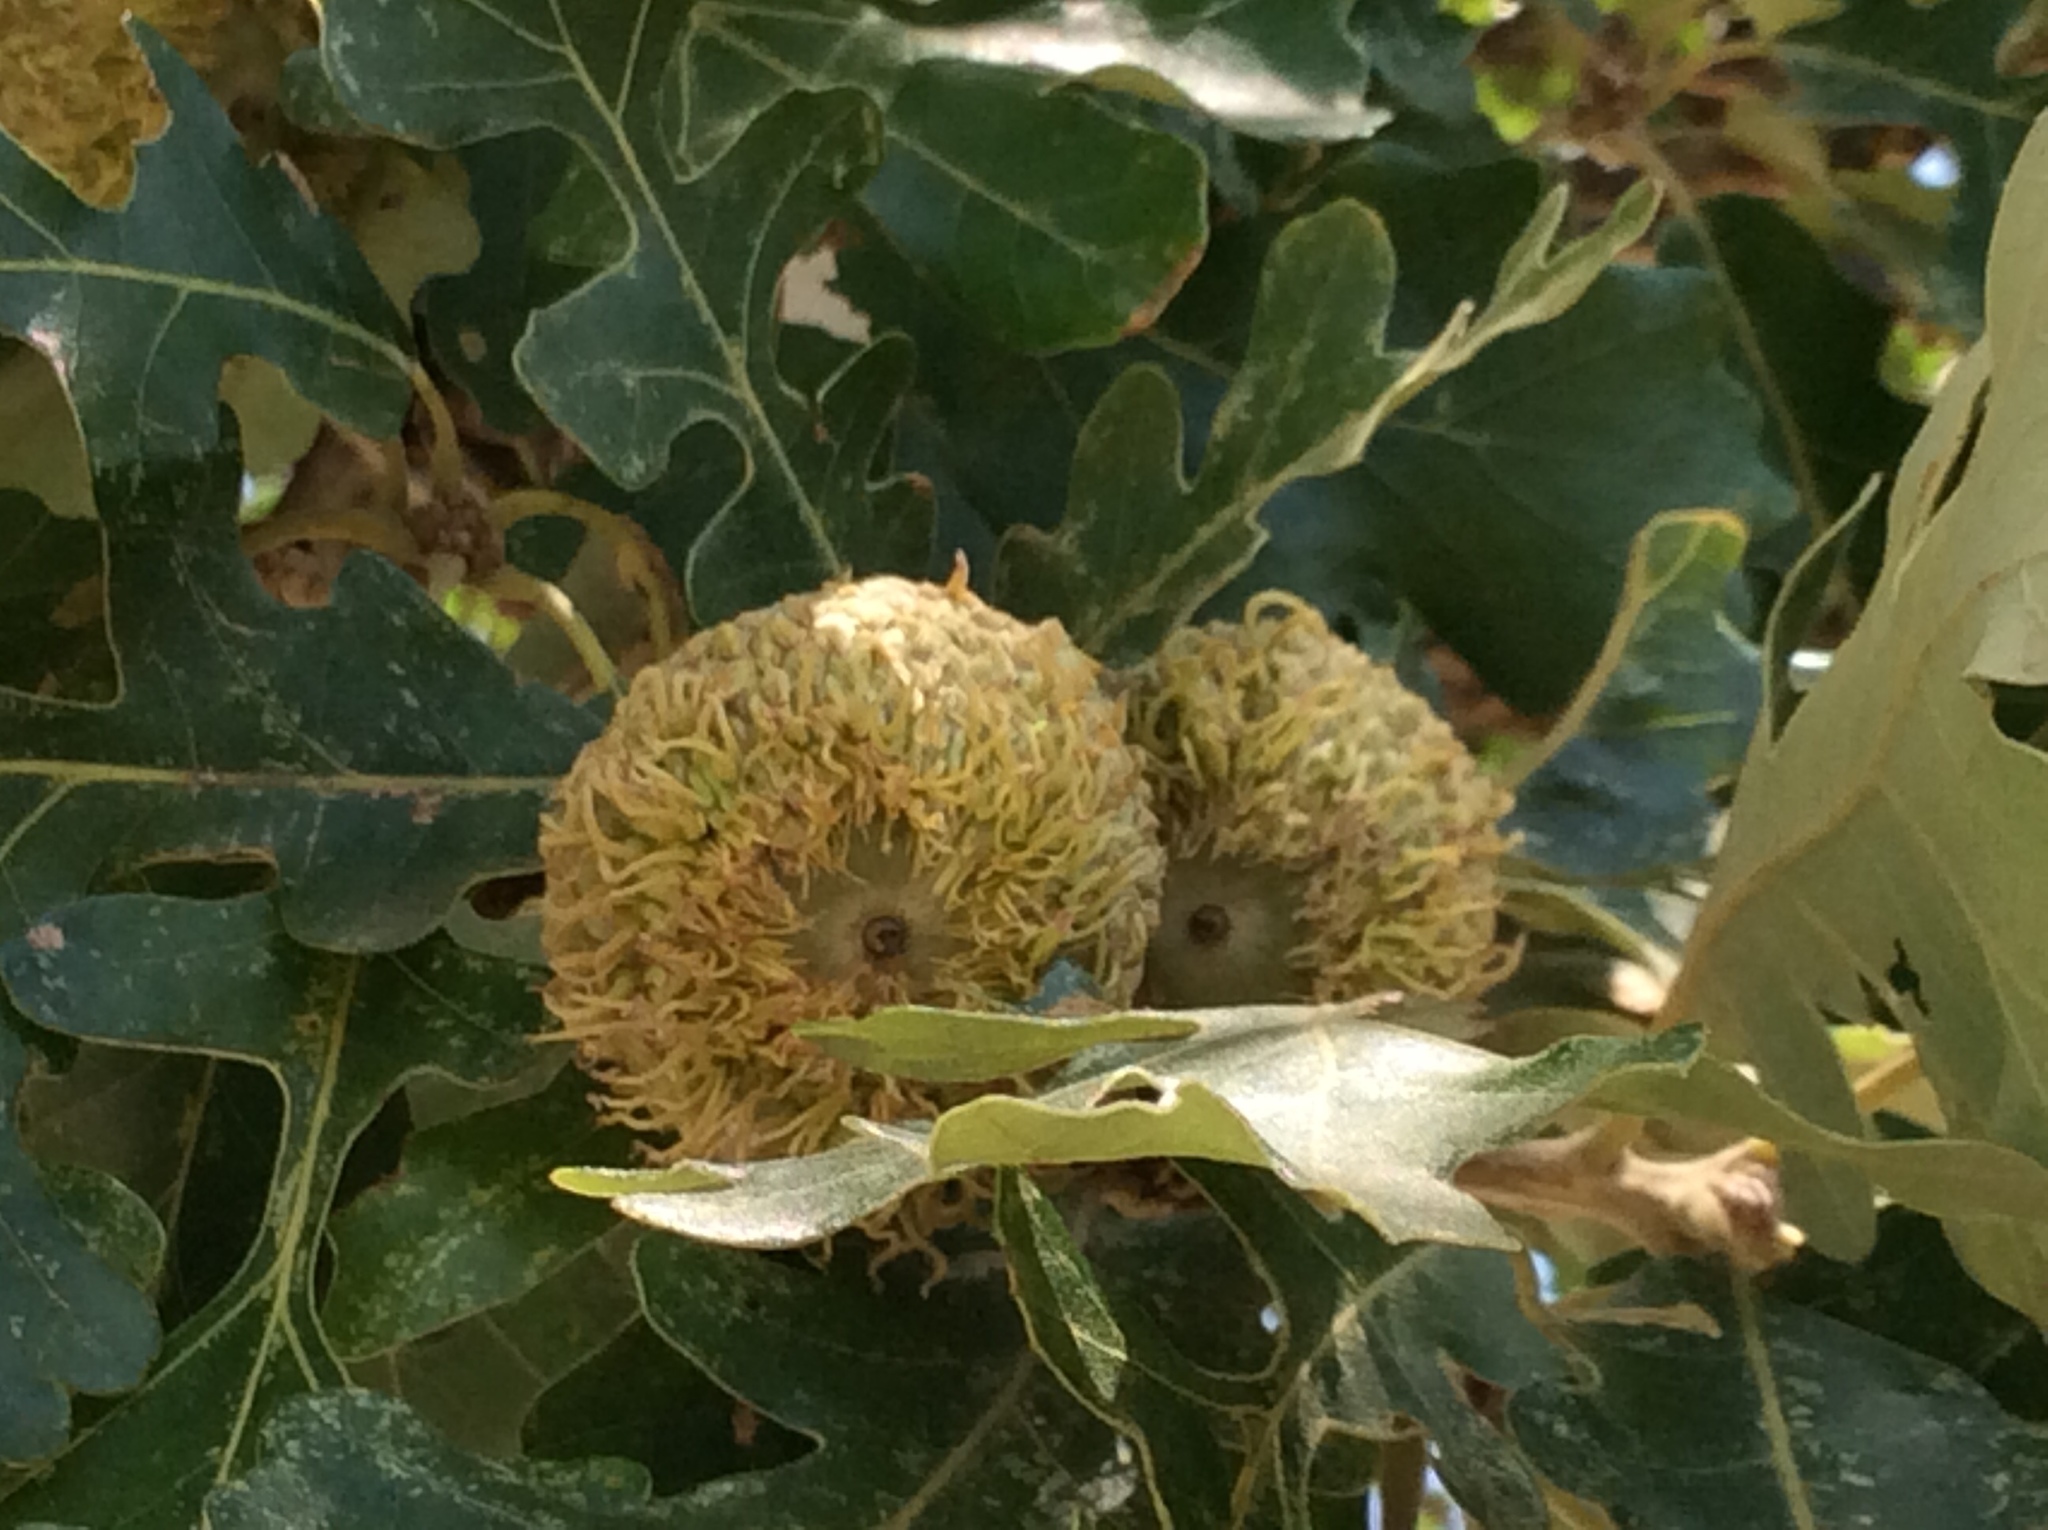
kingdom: Plantae
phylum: Tracheophyta
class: Magnoliopsida
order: Fagales
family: Fagaceae
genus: Quercus
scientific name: Quercus macrocarpa
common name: Bur oak
